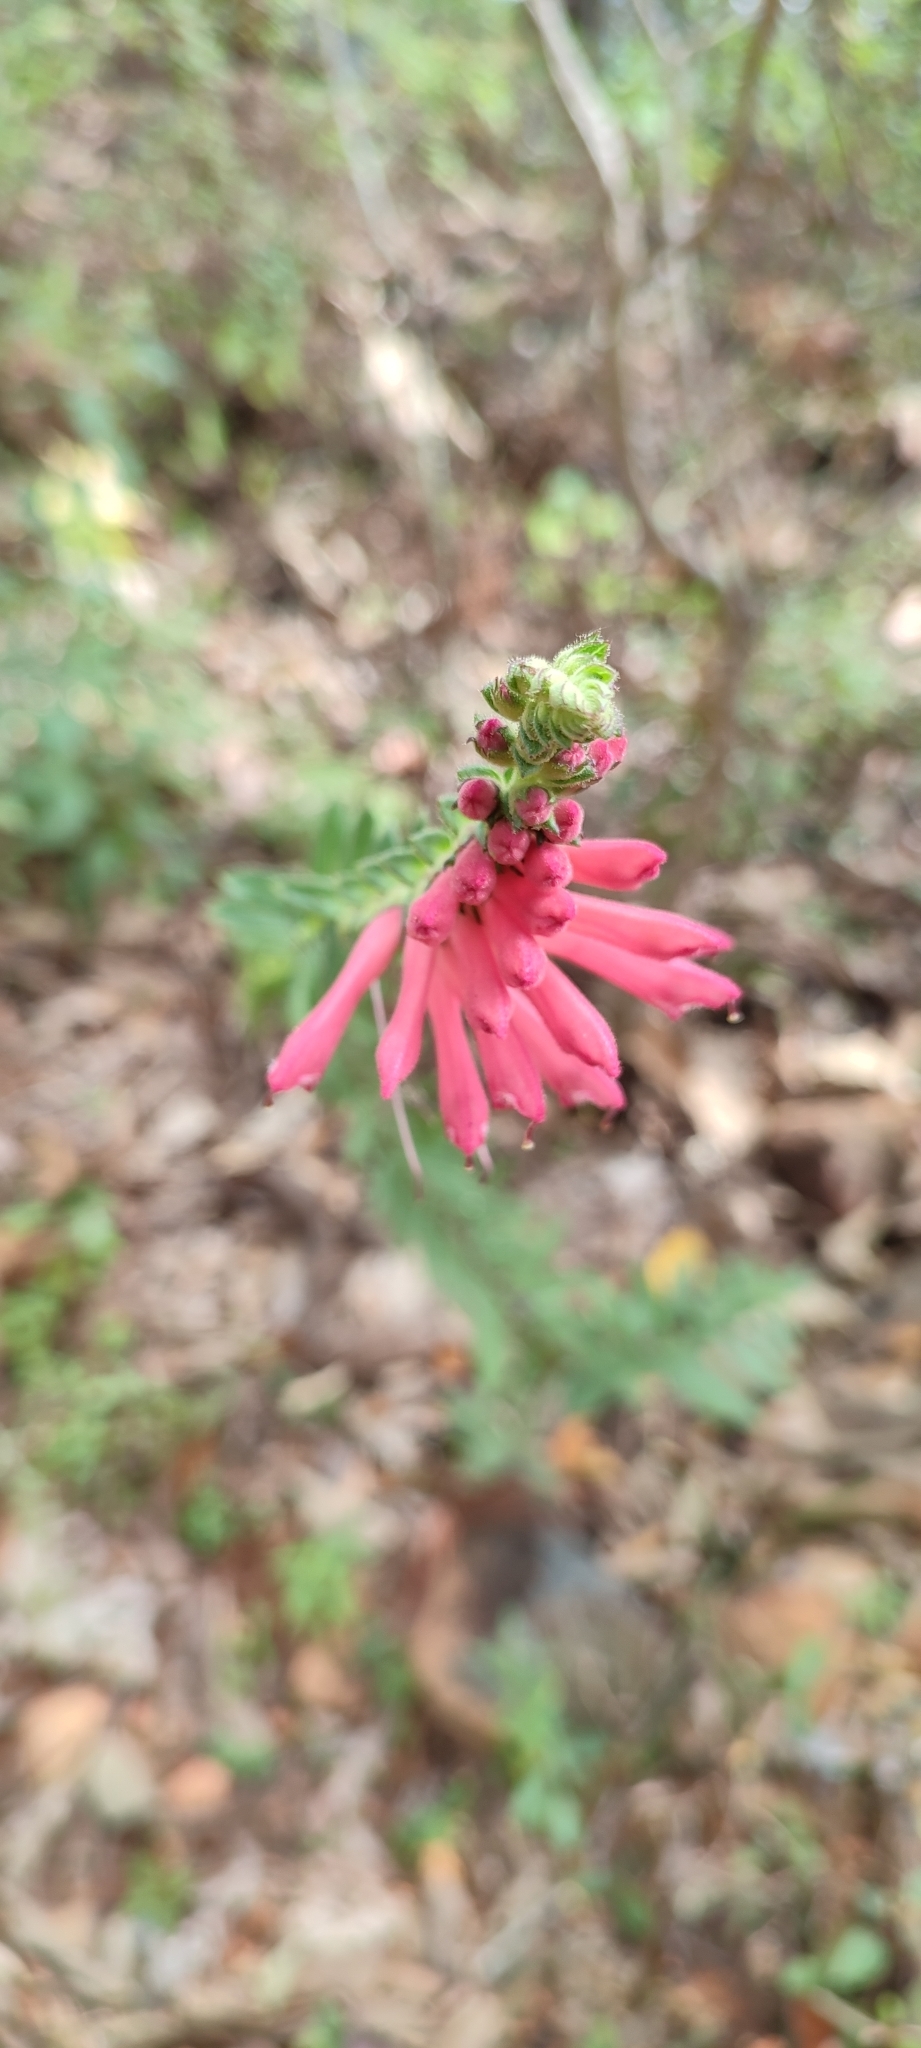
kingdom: Plantae
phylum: Tracheophyta
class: Magnoliopsida
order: Lamiales
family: Orobanchaceae
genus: Lamourouxia
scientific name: Lamourouxia pacifica
